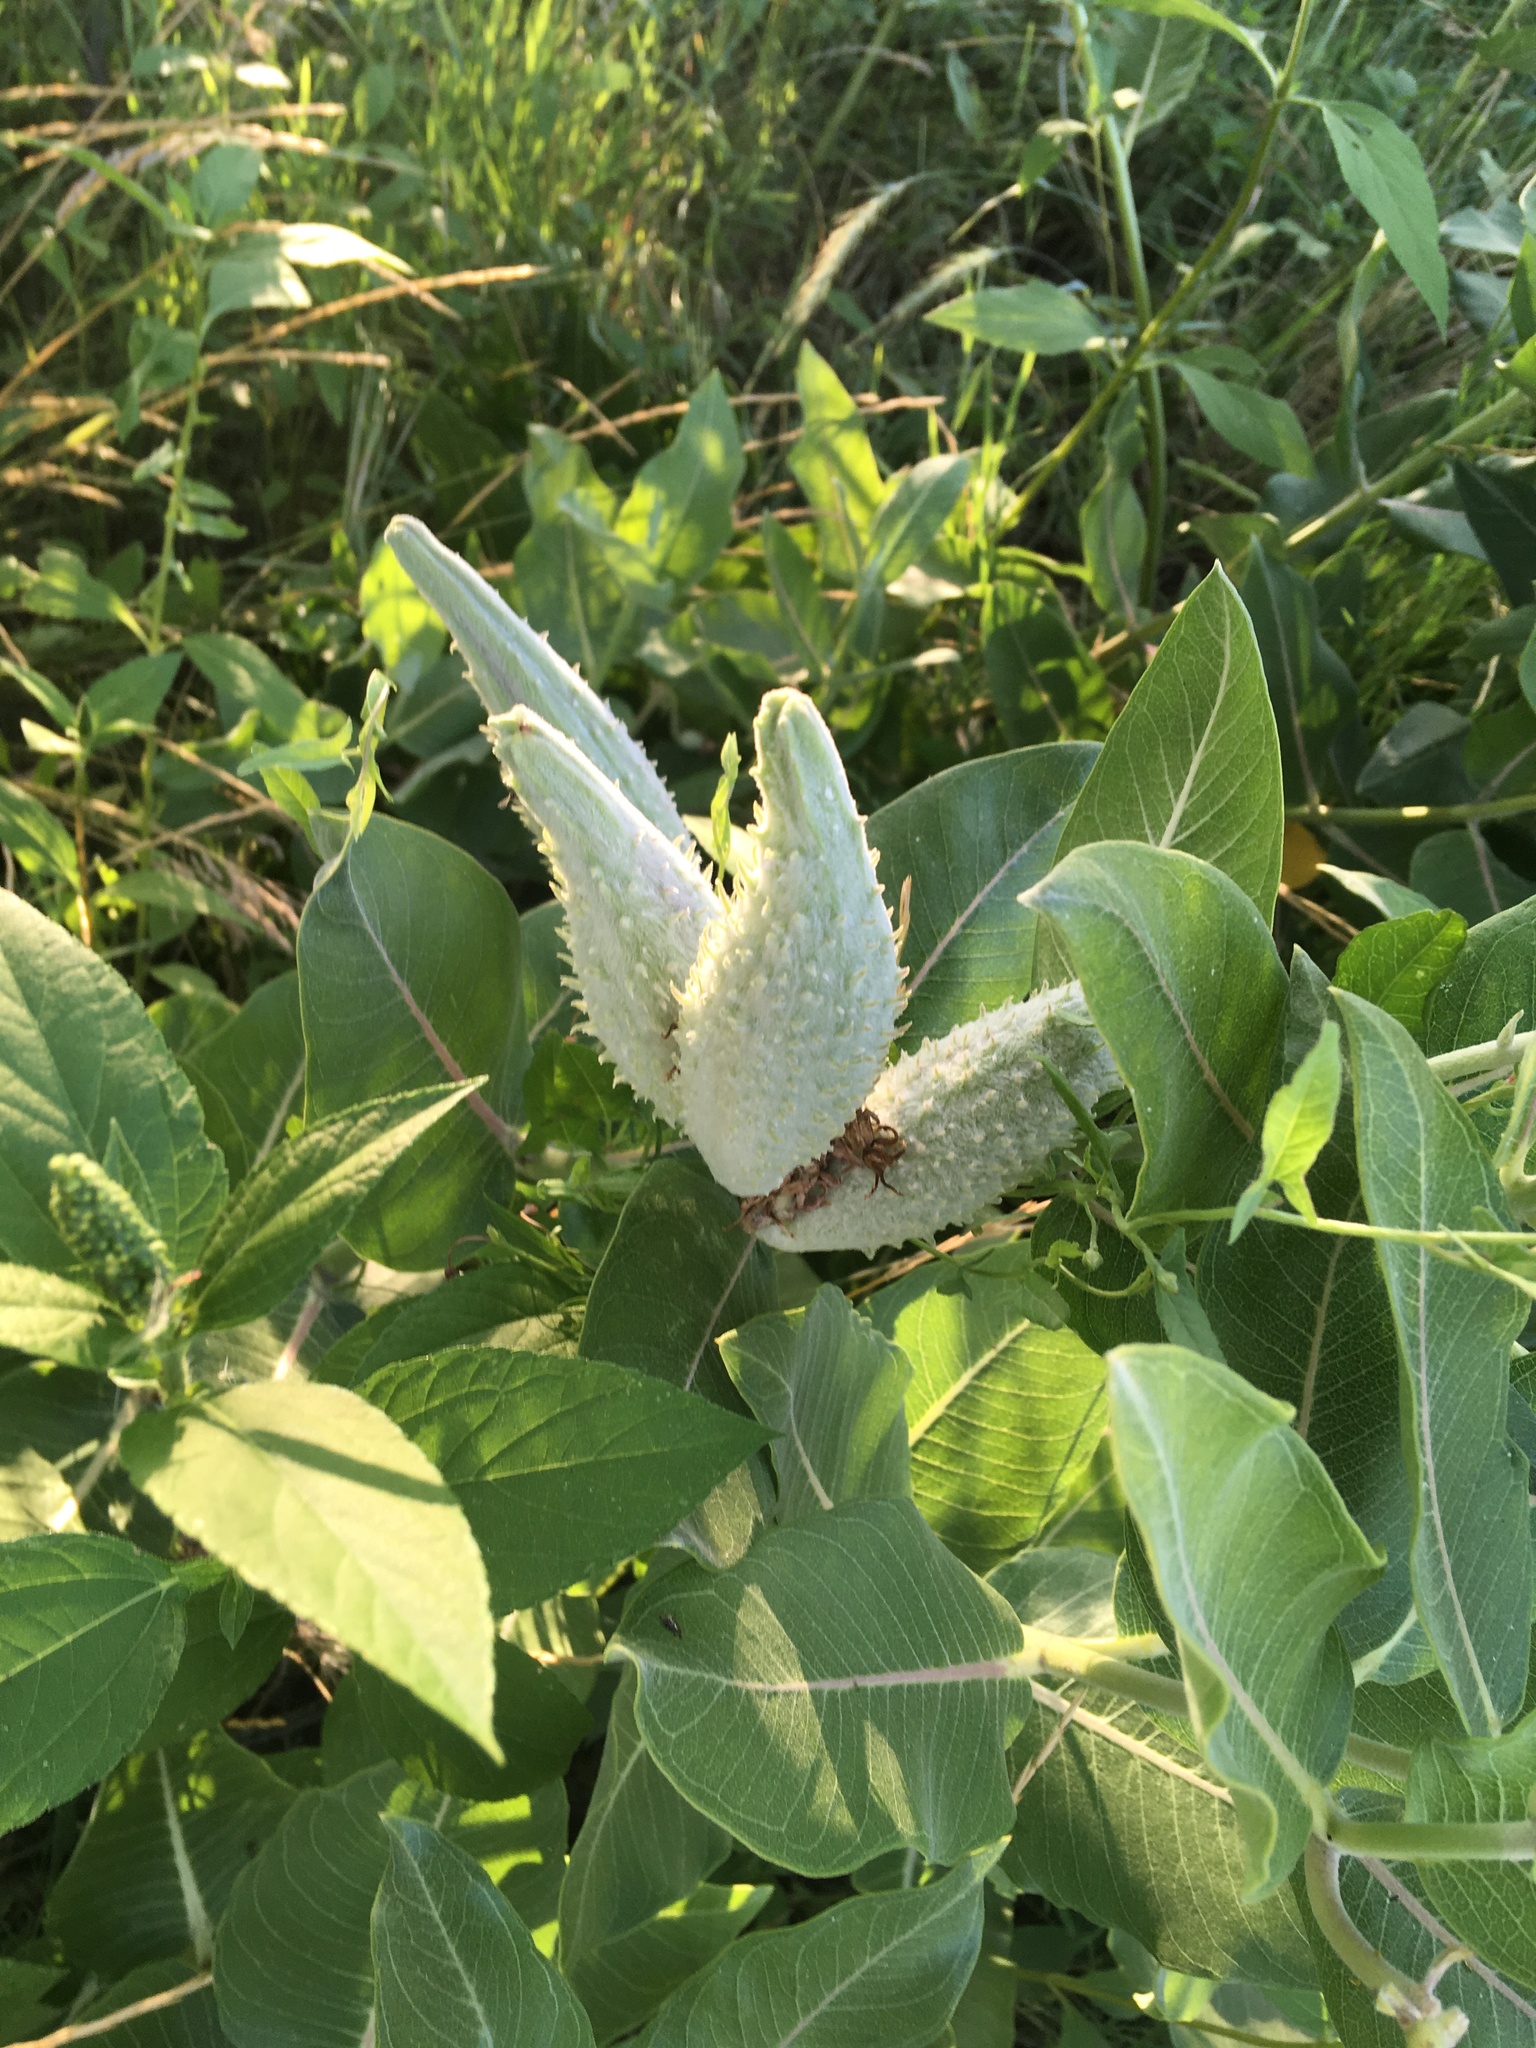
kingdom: Plantae
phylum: Tracheophyta
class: Magnoliopsida
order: Gentianales
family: Apocynaceae
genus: Asclepias
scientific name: Asclepias speciosa
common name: Showy milkweed
